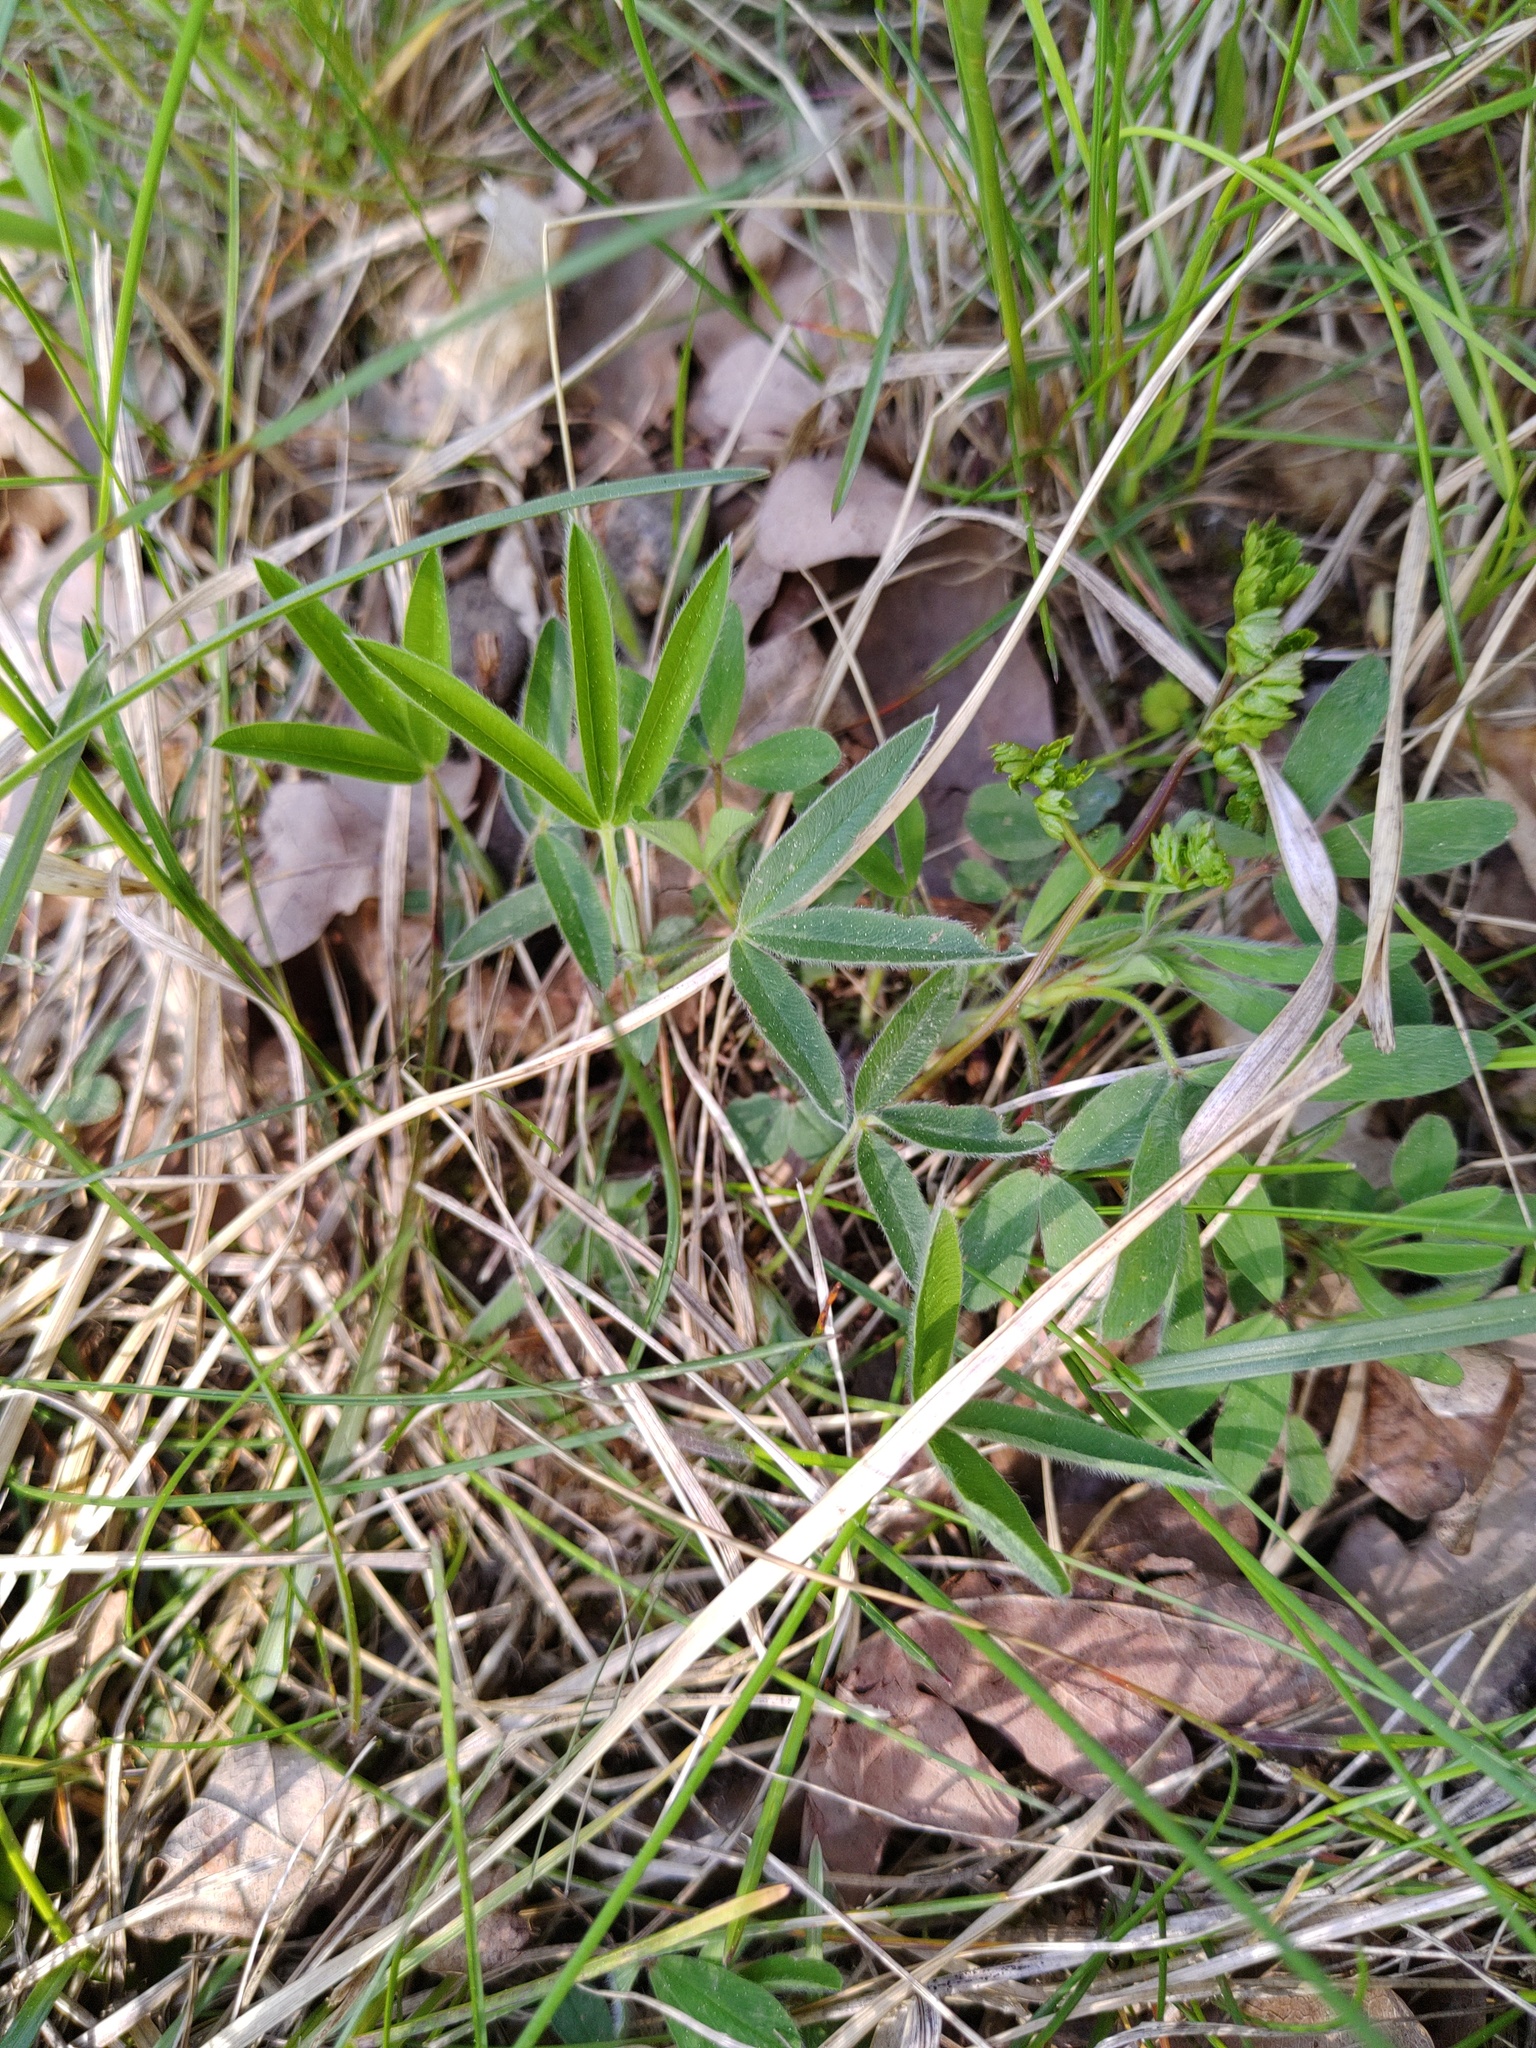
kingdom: Plantae
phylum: Tracheophyta
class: Magnoliopsida
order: Fabales
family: Fabaceae
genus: Trifolium
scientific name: Trifolium alpestre
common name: Owl-head clover
